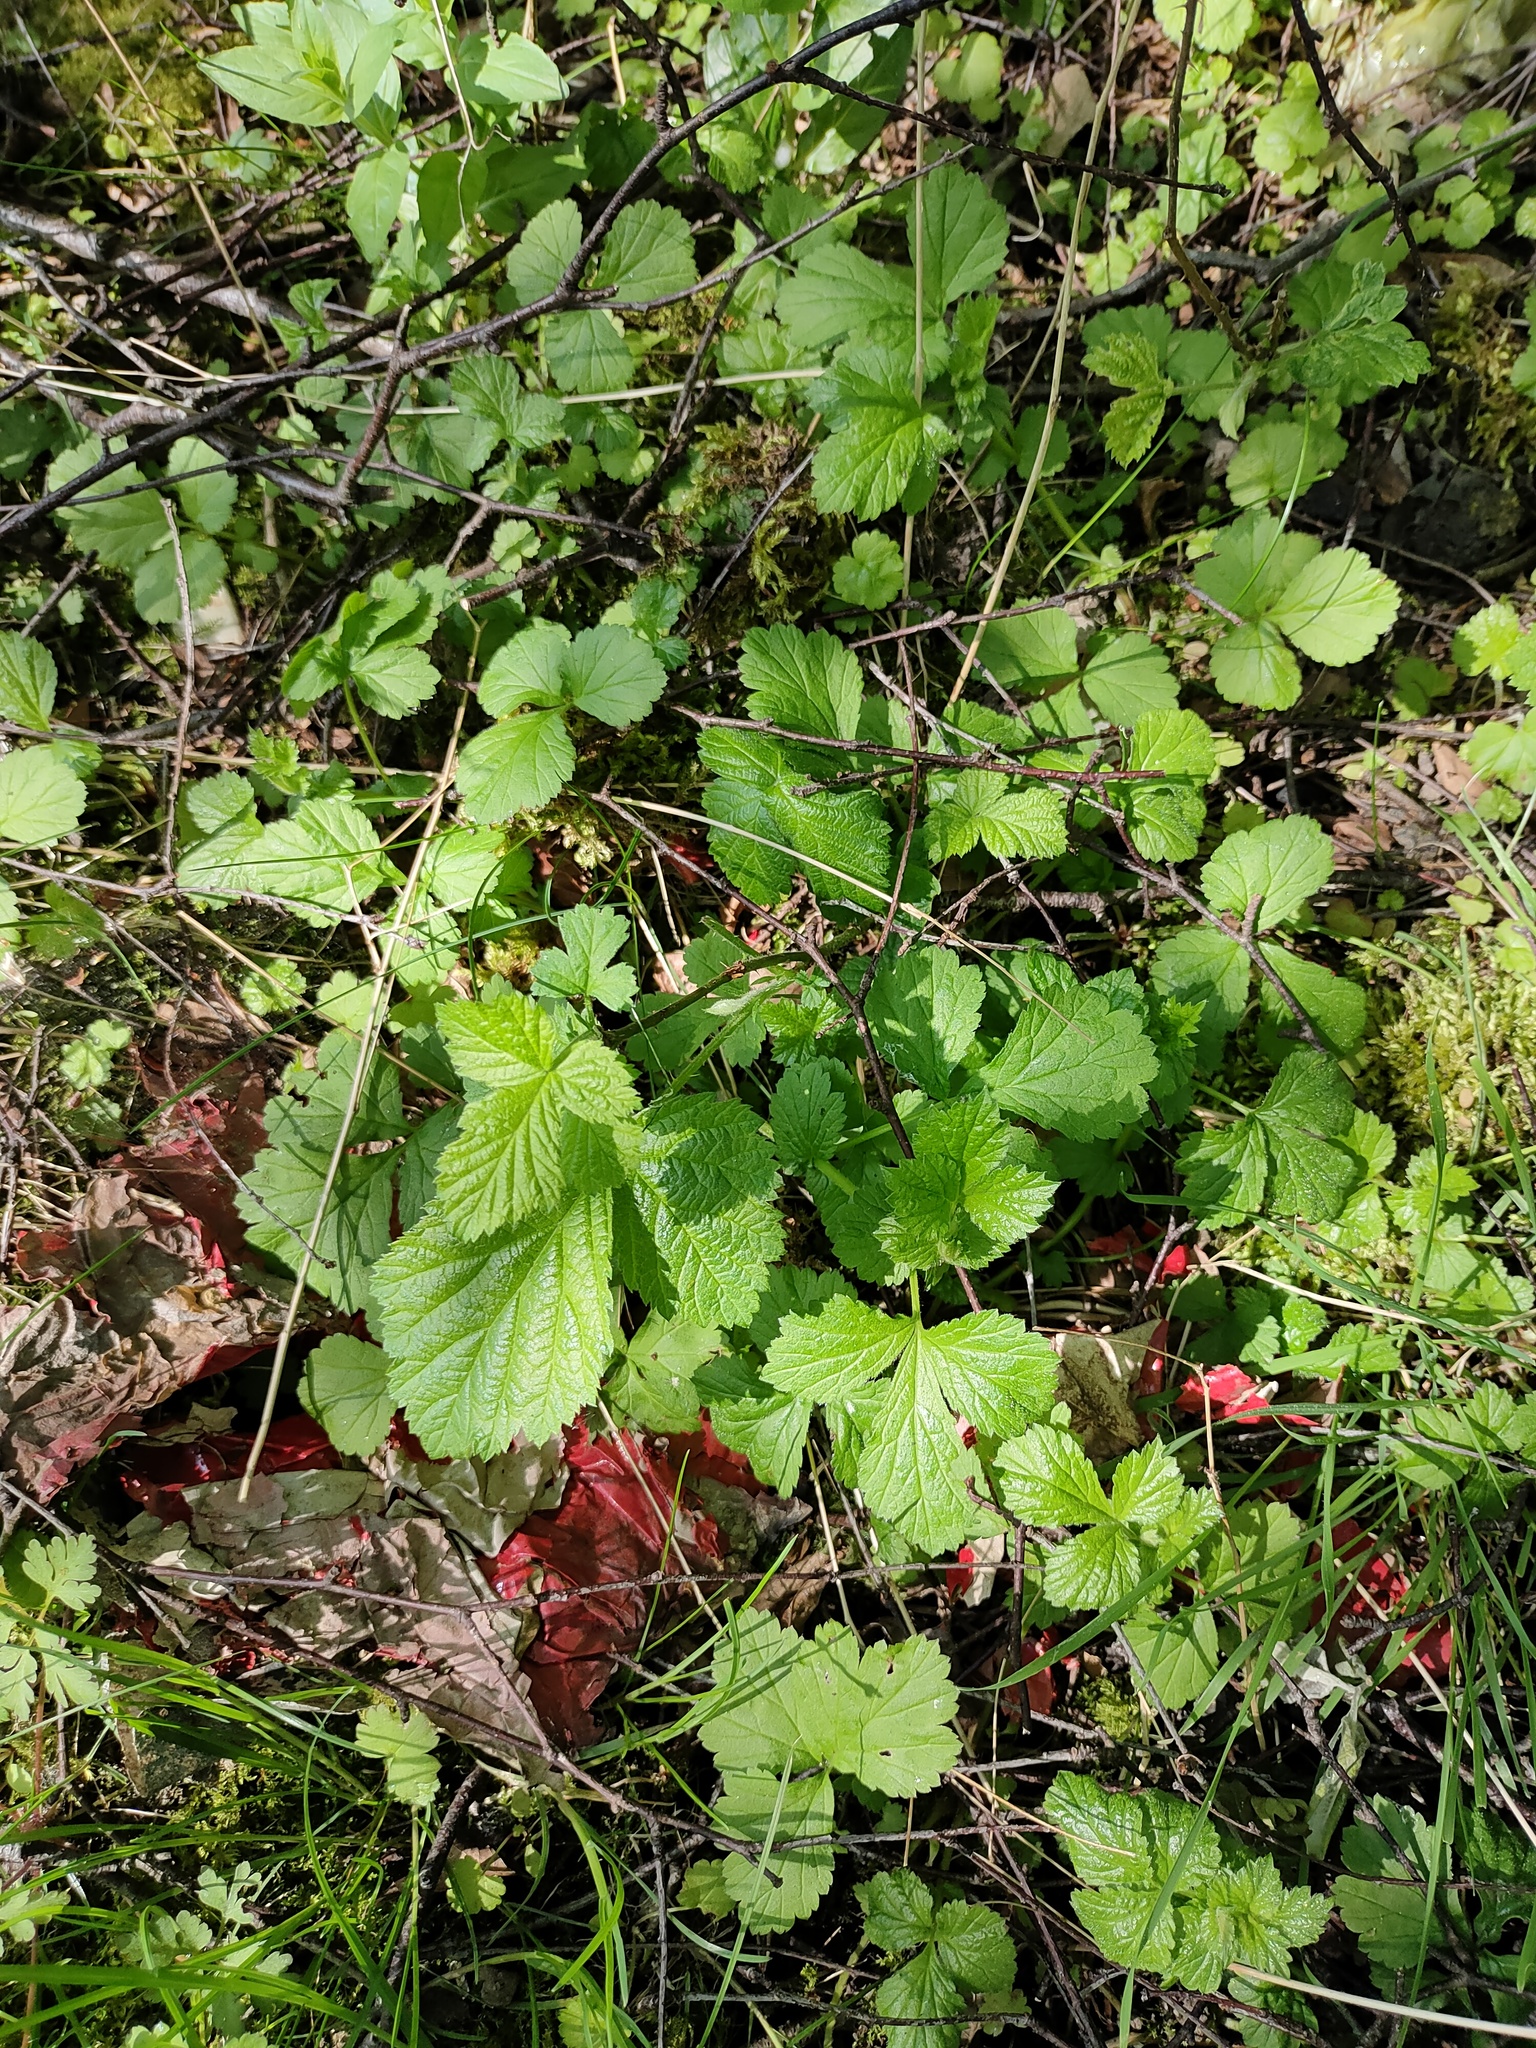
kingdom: Plantae
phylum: Tracheophyta
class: Magnoliopsida
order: Rosales
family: Rosaceae
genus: Geum
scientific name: Geum urbanum
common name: Wood avens
